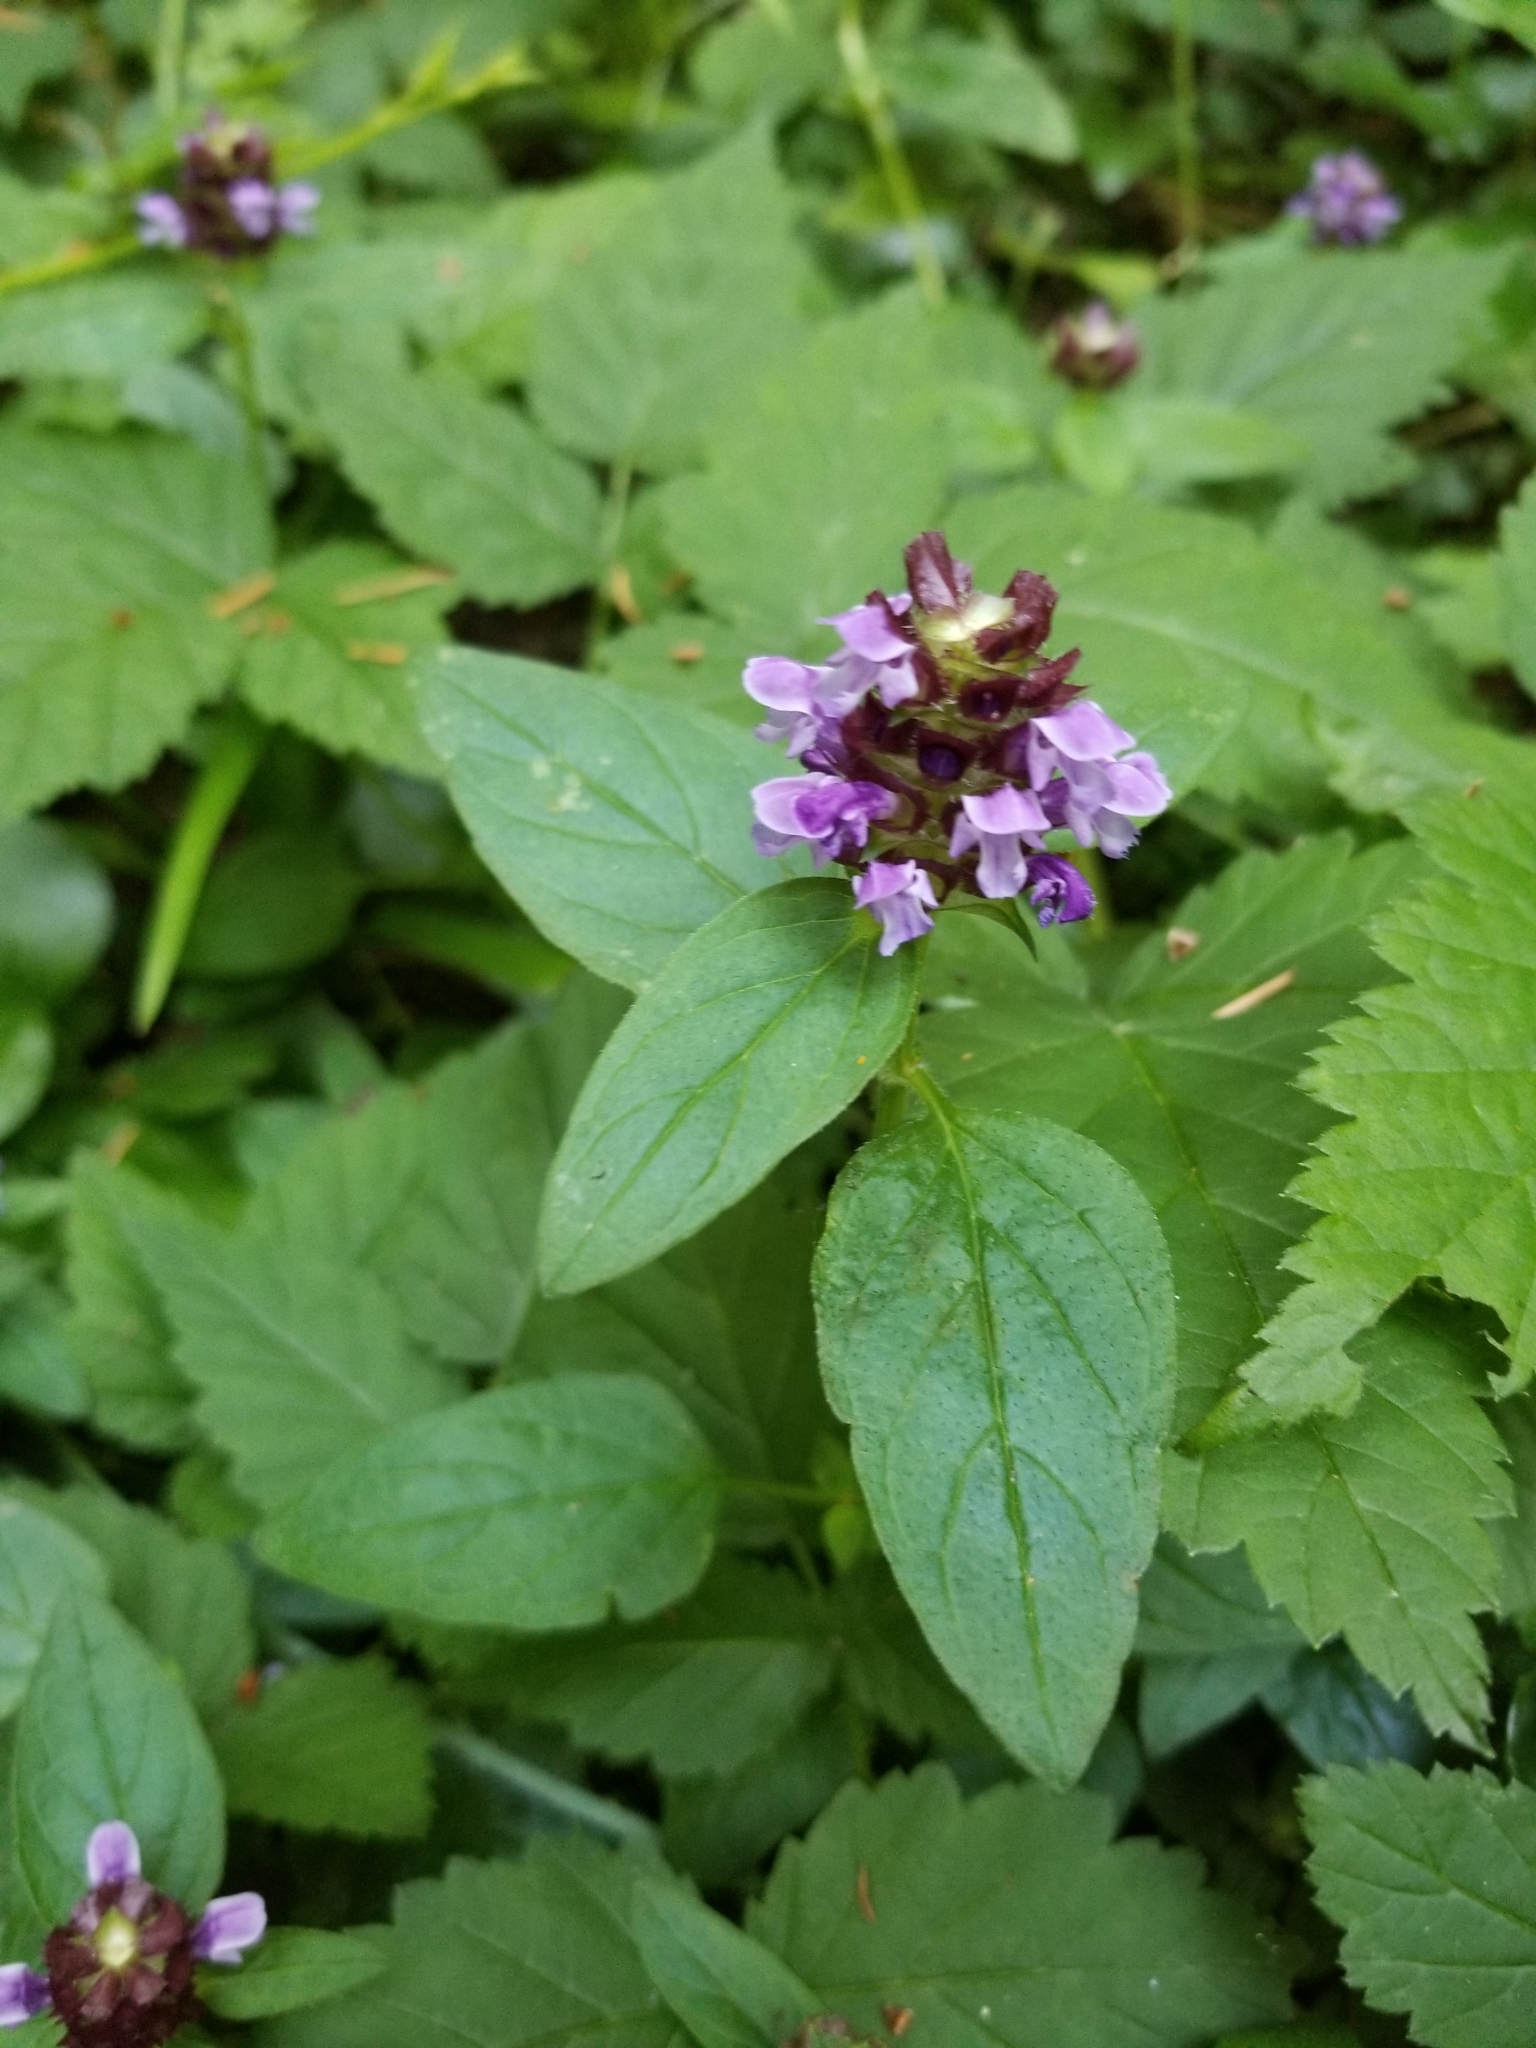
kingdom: Plantae
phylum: Tracheophyta
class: Magnoliopsida
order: Lamiales
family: Lamiaceae
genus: Prunella
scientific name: Prunella vulgaris
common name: Heal-all
